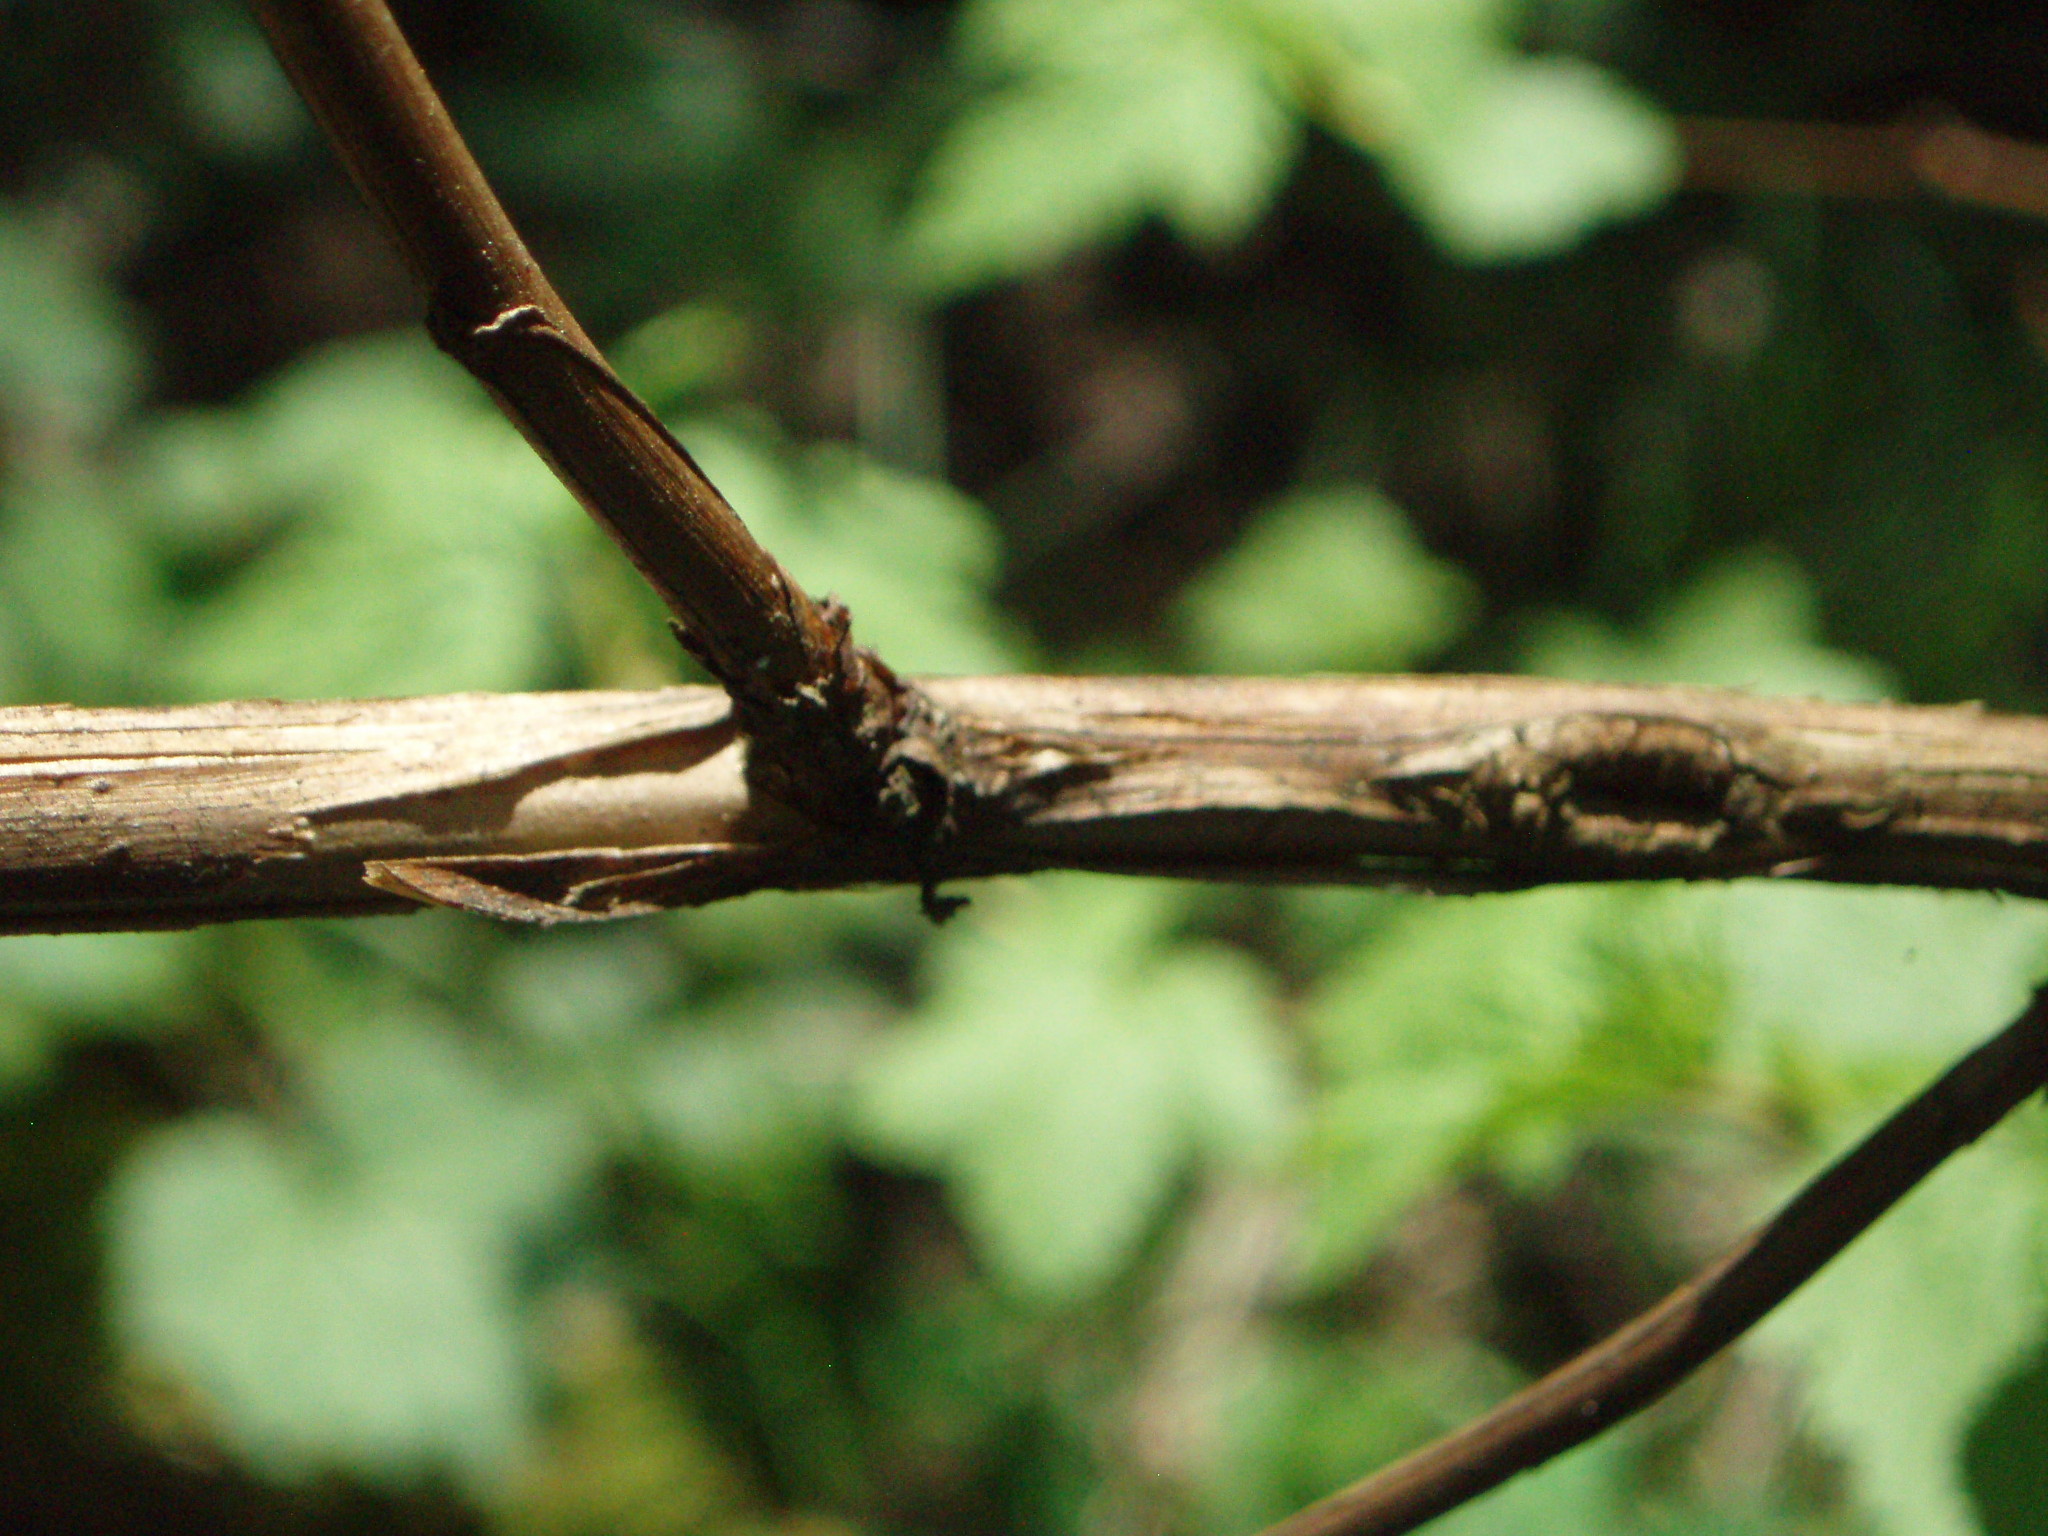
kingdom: Plantae
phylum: Tracheophyta
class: Magnoliopsida
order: Rosales
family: Rosaceae
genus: Physocarpus
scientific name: Physocarpus capitatus
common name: Pacific ninebark
